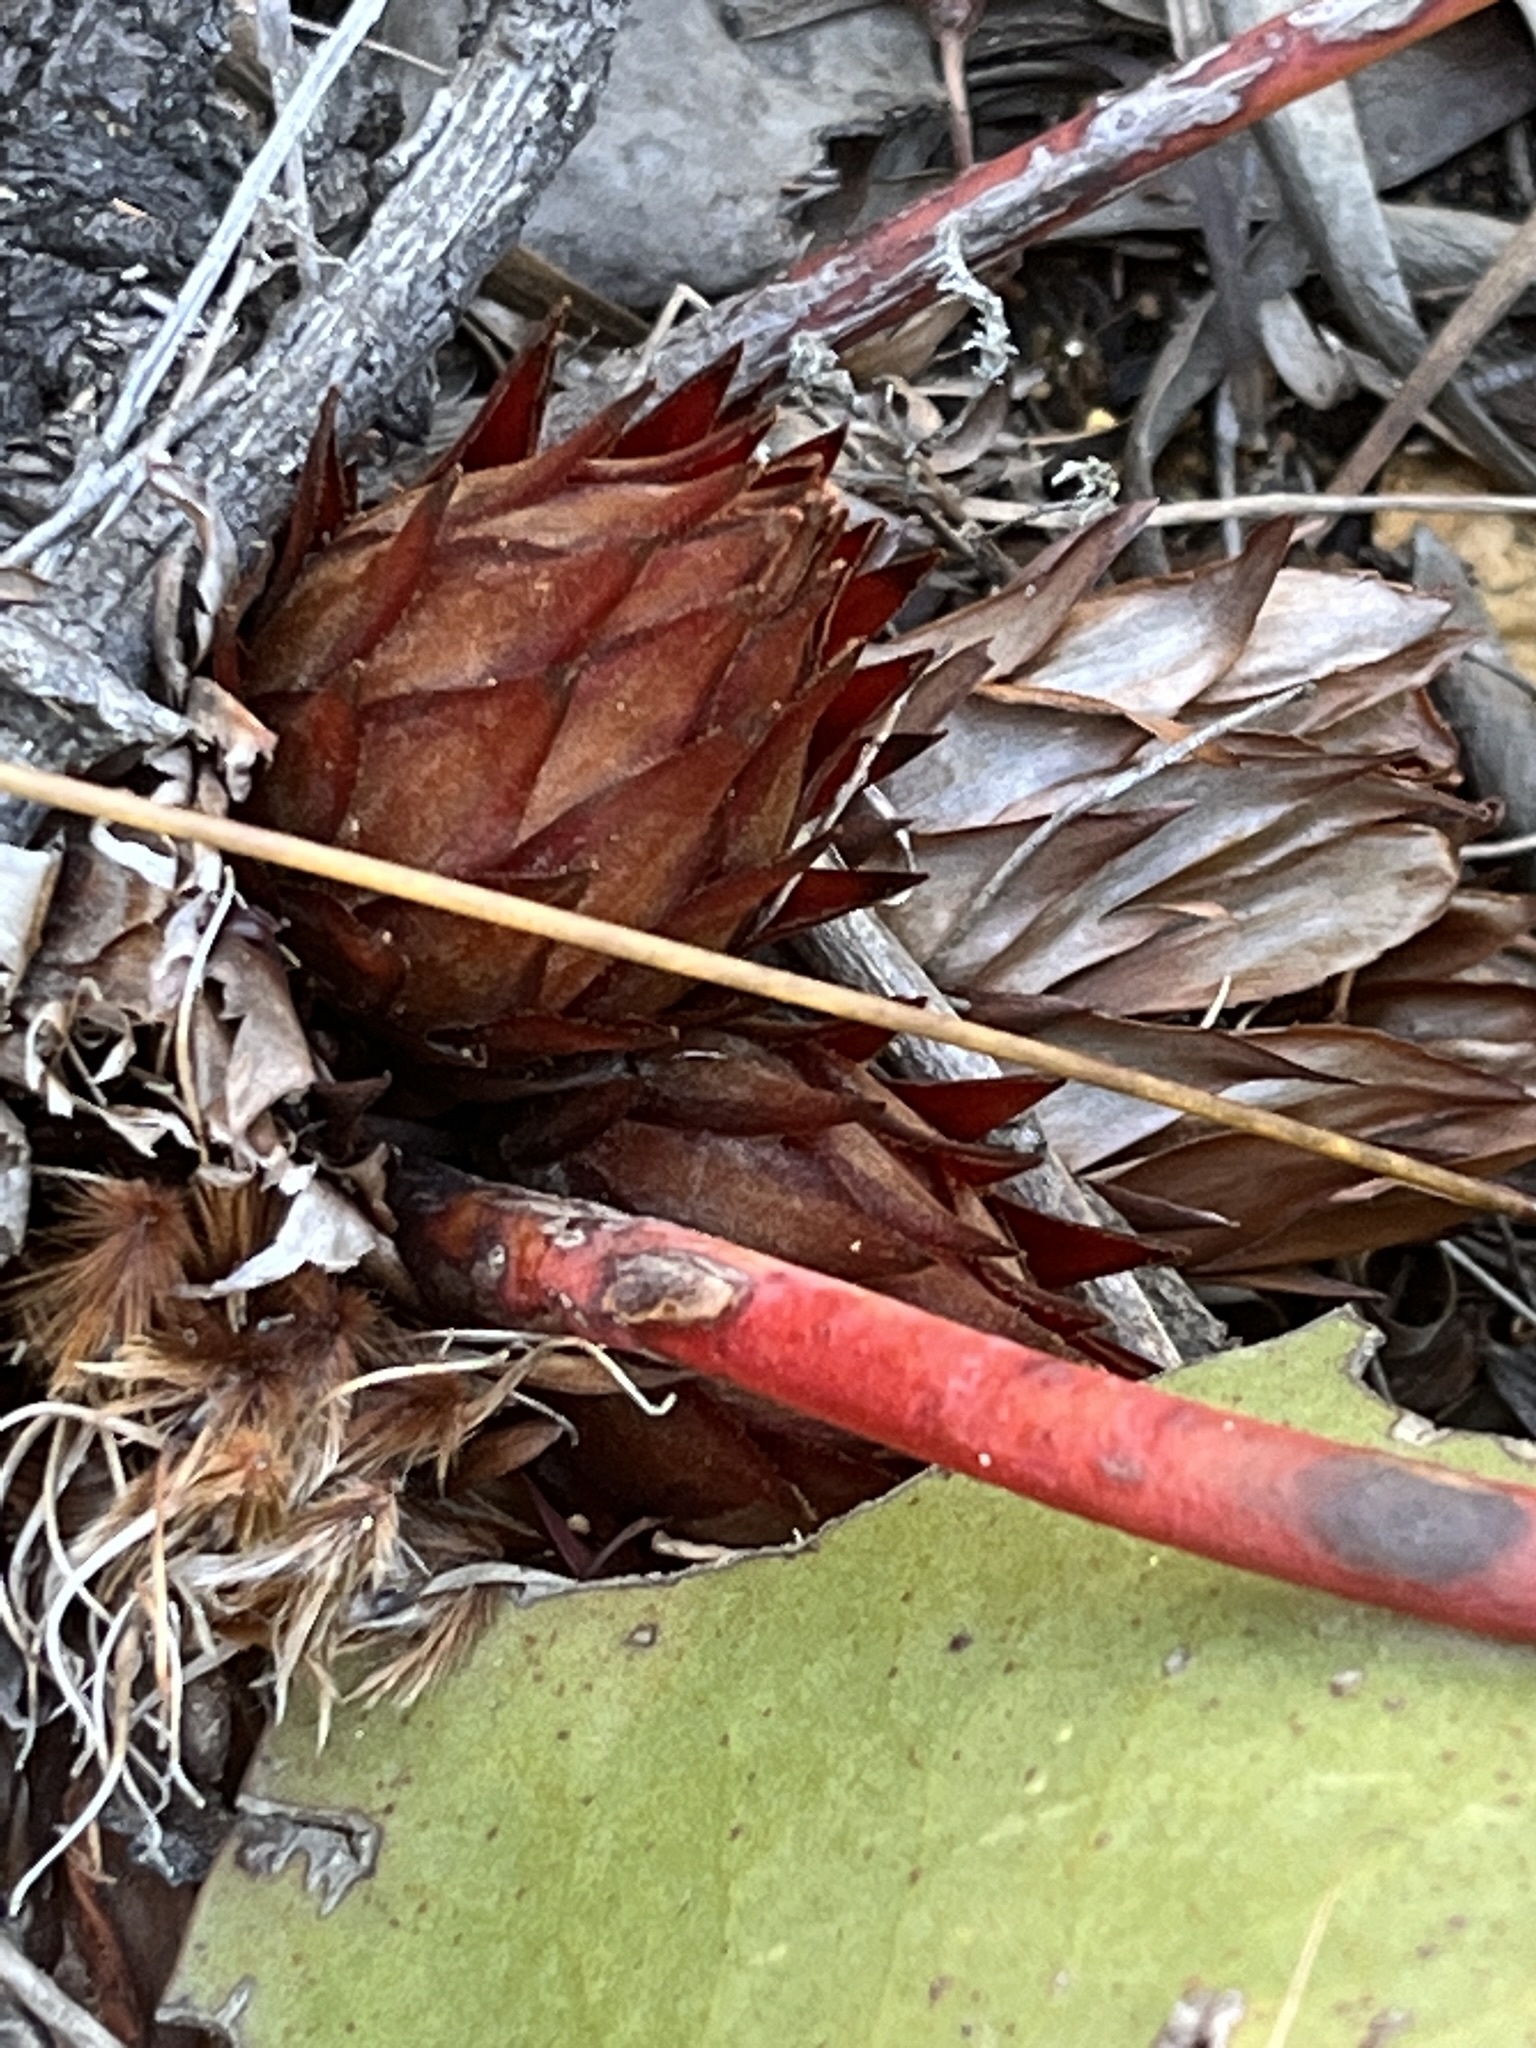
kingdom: Plantae
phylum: Tracheophyta
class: Magnoliopsida
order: Proteales
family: Proteaceae
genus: Protea
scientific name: Protea cordata
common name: Heart-leaf sugarbush
